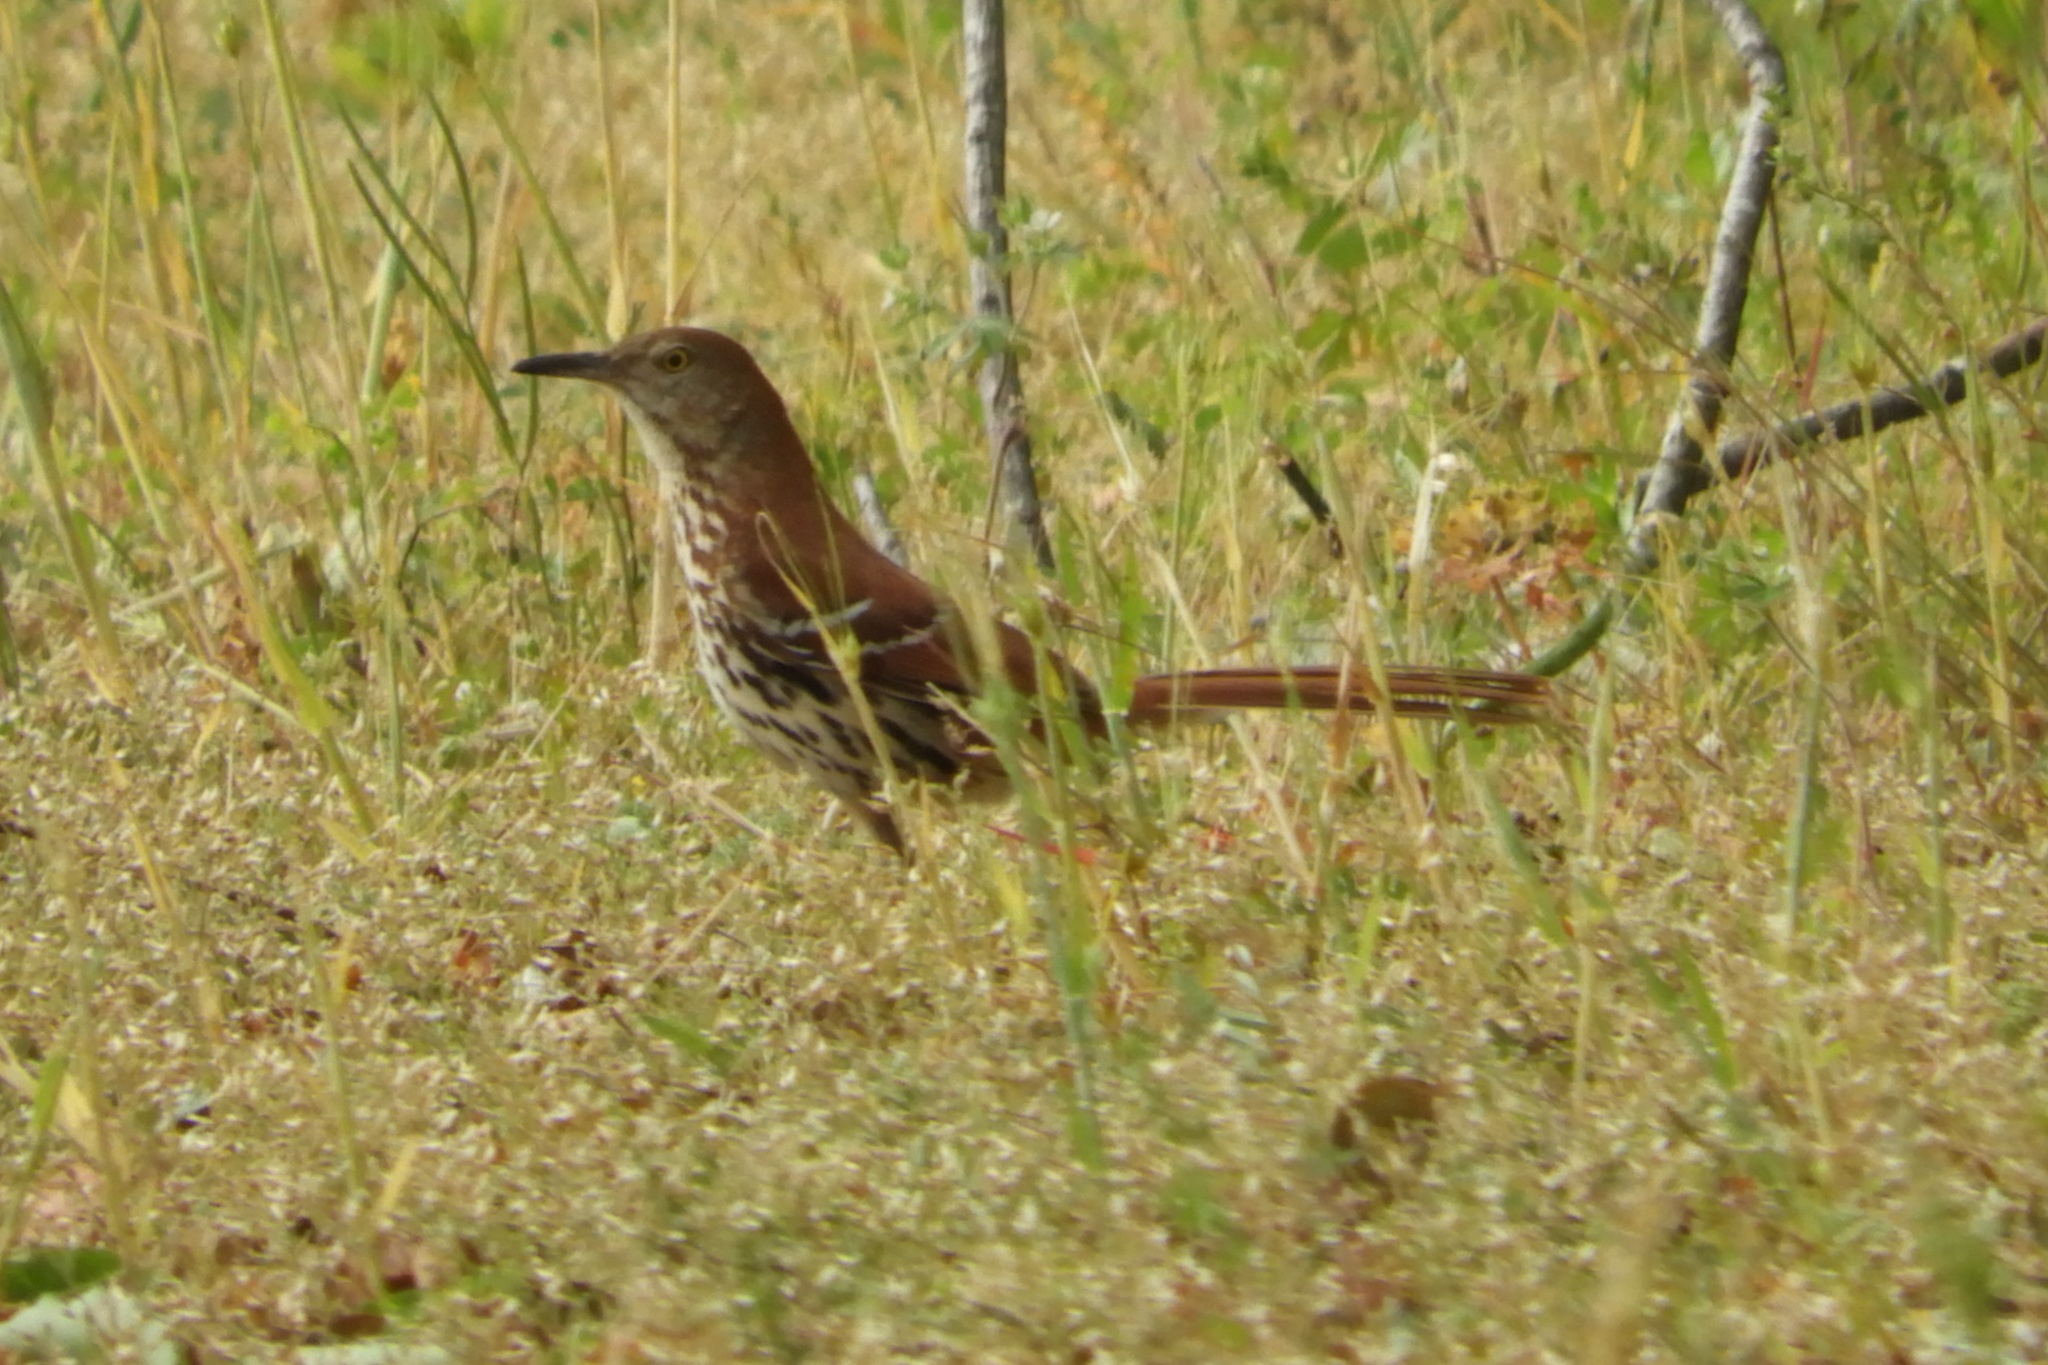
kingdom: Animalia
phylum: Chordata
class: Aves
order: Passeriformes
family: Mimidae
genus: Toxostoma
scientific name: Toxostoma rufum
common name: Brown thrasher
